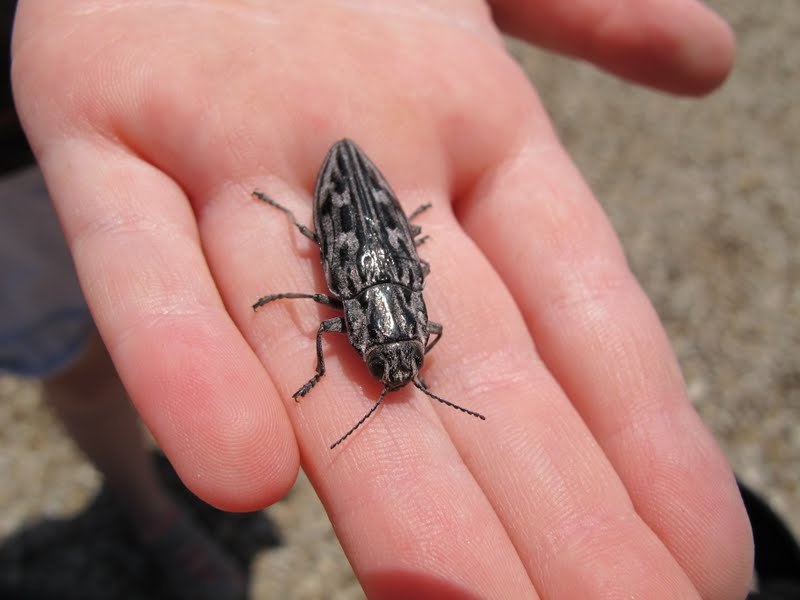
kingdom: Animalia
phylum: Arthropoda
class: Insecta
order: Coleoptera
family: Buprestidae
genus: Chalcophora
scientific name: Chalcophora angulicollis
